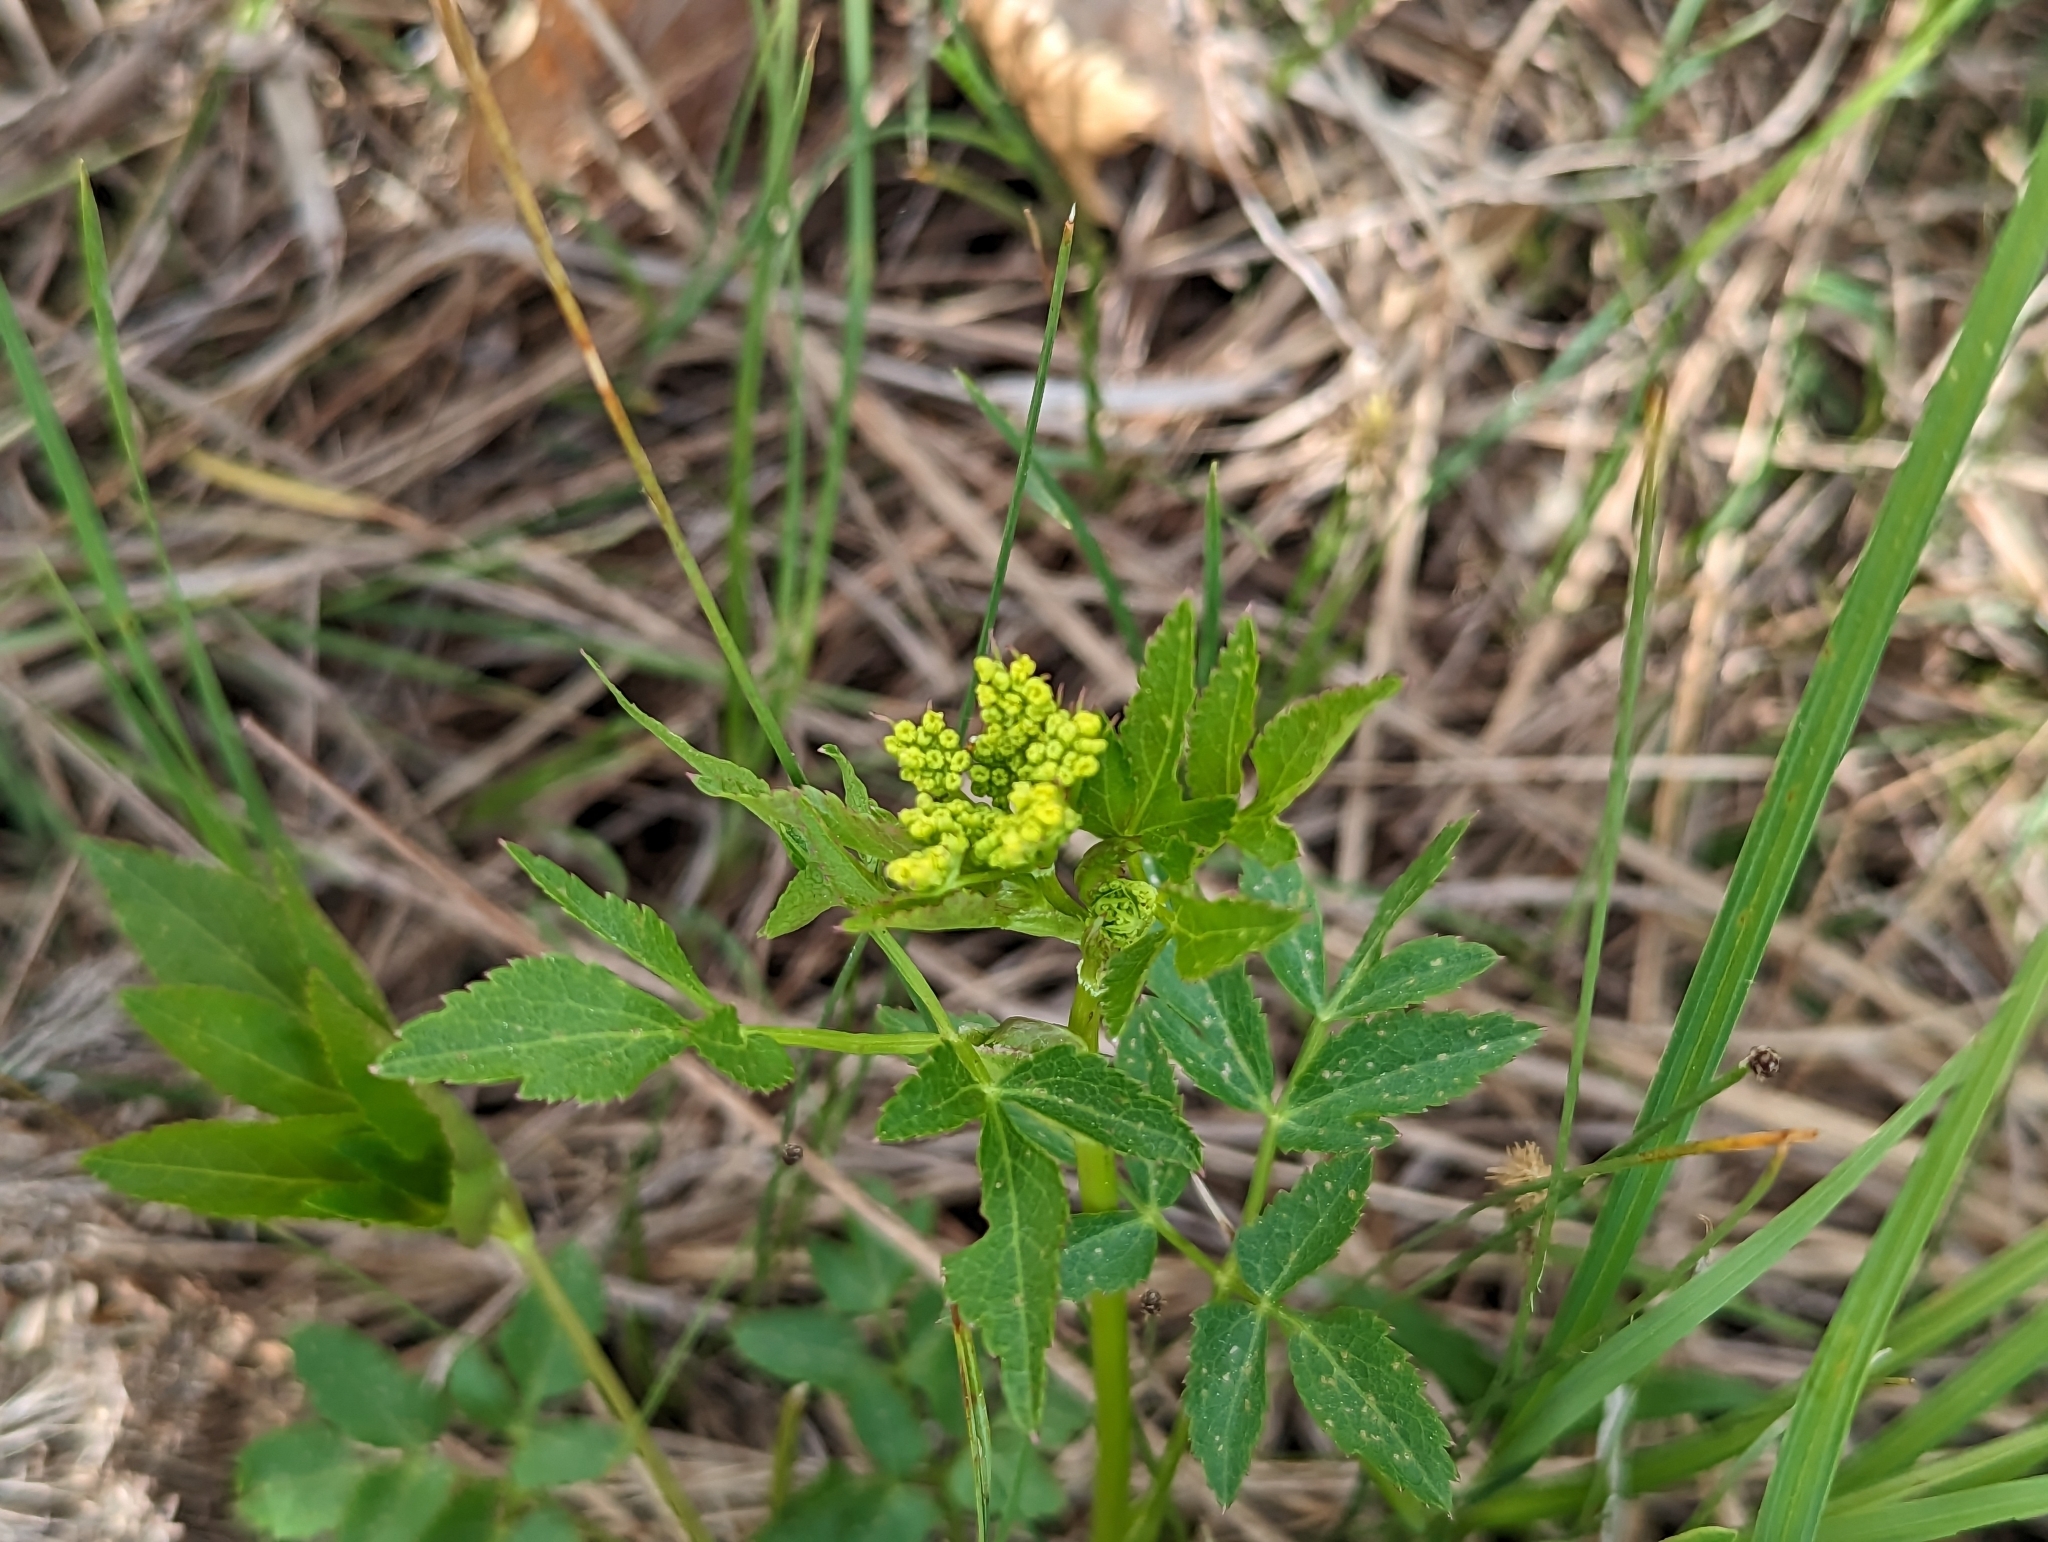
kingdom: Plantae
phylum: Tracheophyta
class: Magnoliopsida
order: Apiales
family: Apiaceae
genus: Zizia
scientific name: Zizia aurea
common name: Golden alexanders
